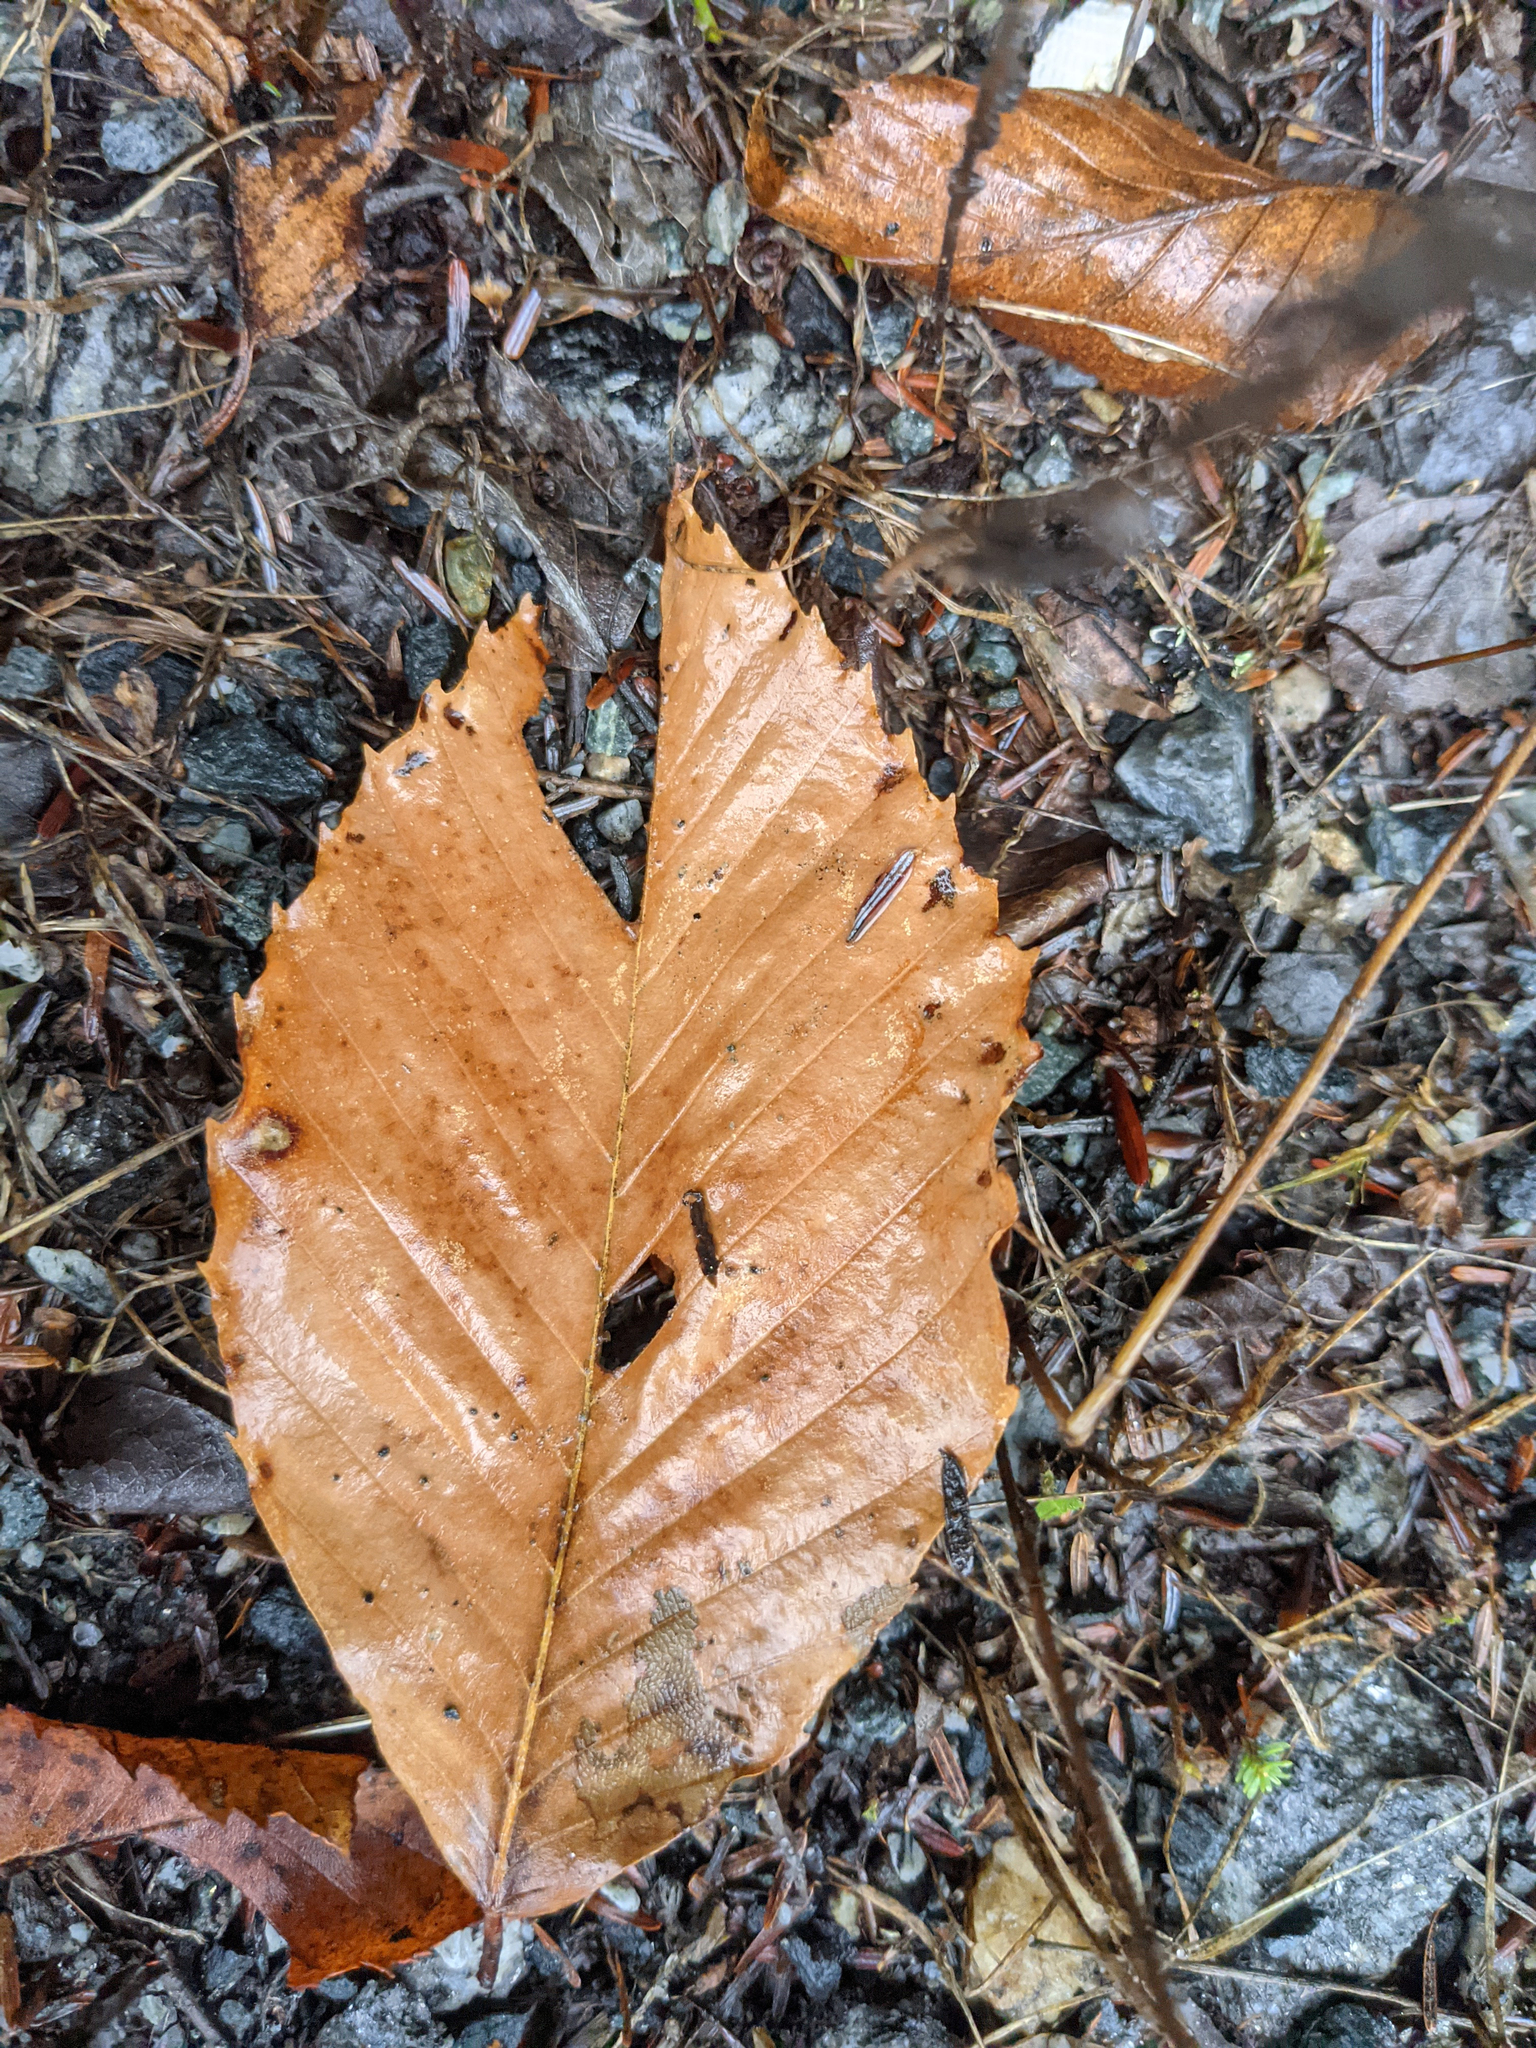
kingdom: Plantae
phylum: Tracheophyta
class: Magnoliopsida
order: Fagales
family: Fagaceae
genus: Fagus
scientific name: Fagus grandifolia
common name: American beech
